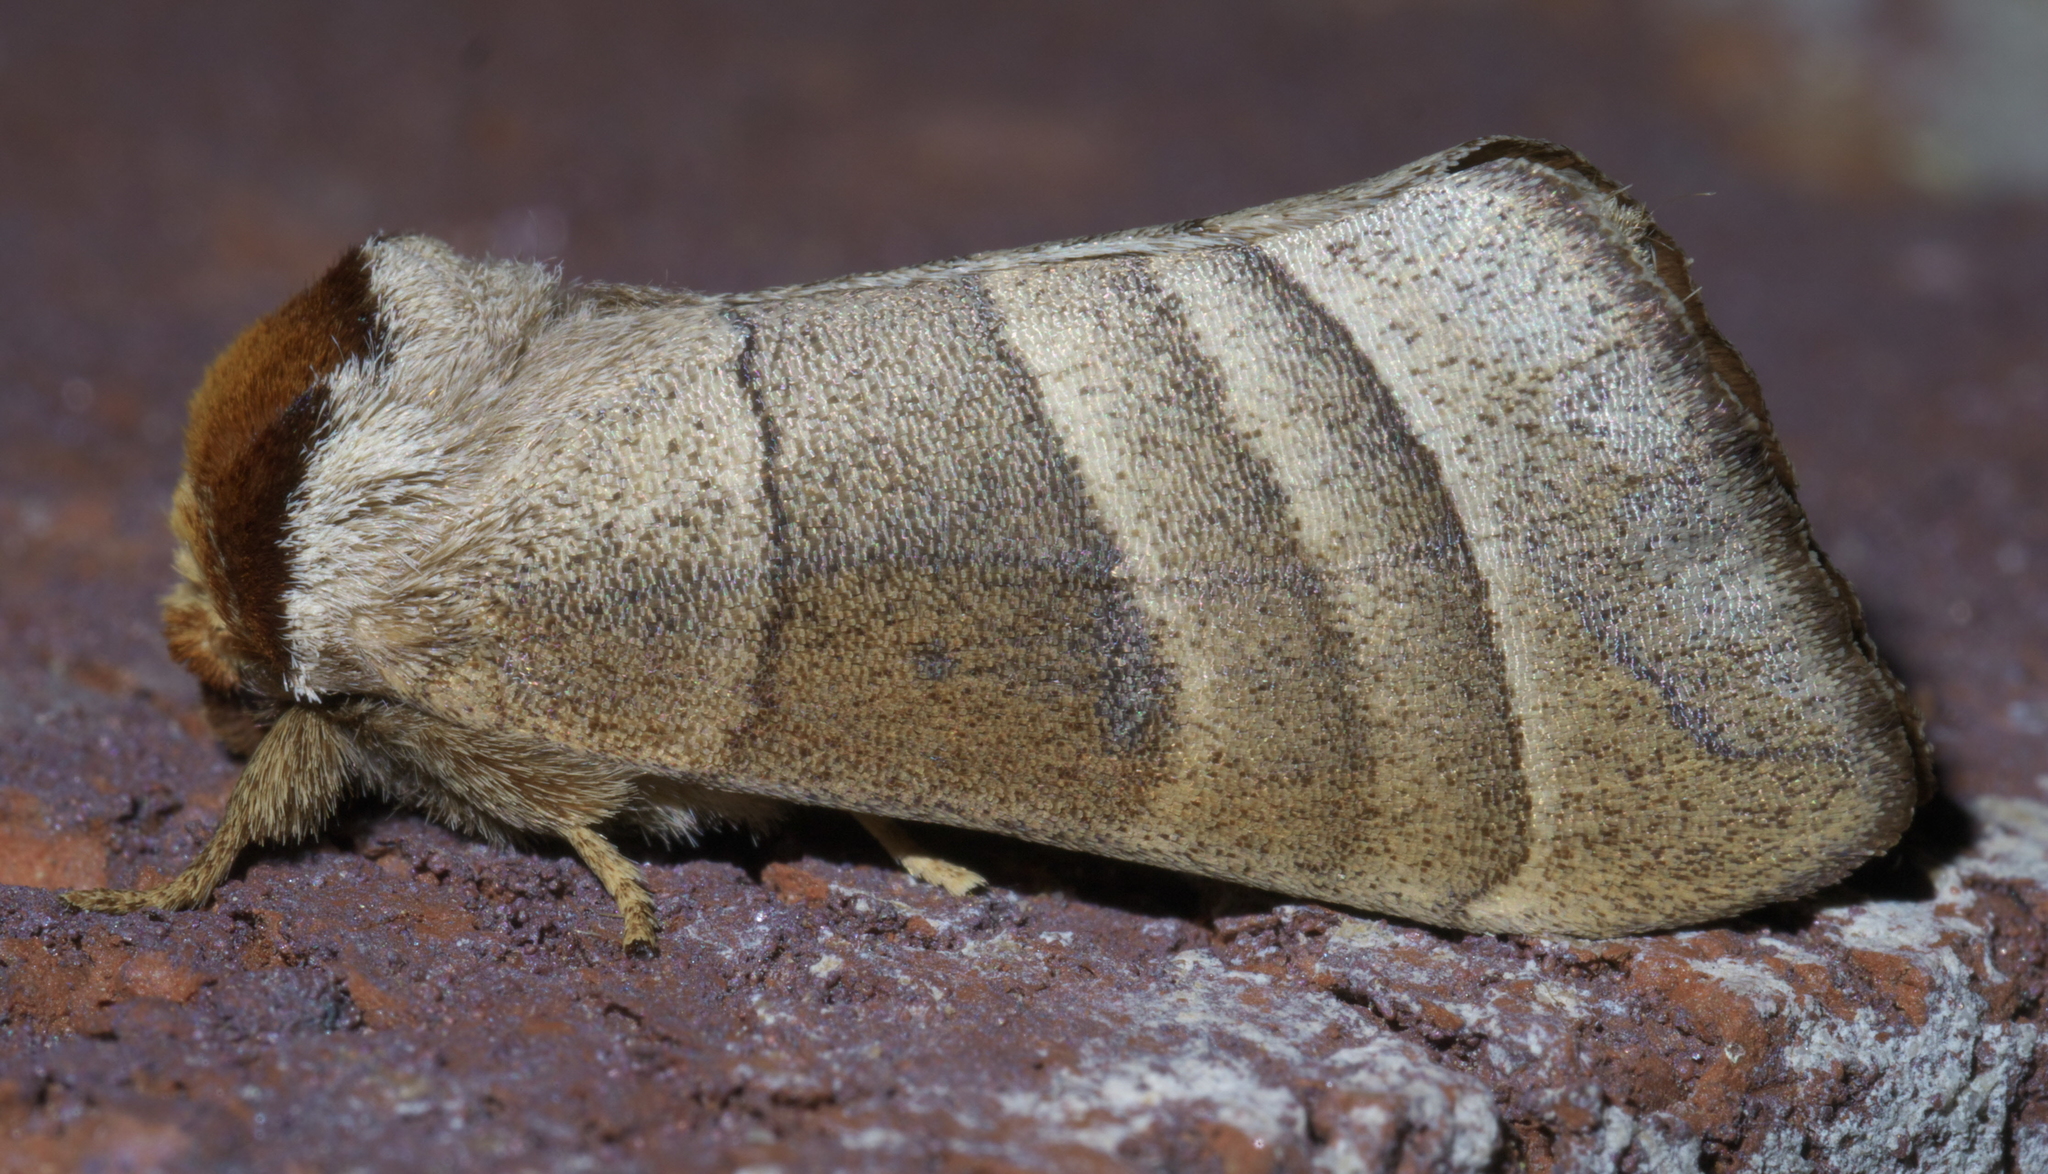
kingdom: Animalia
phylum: Arthropoda
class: Insecta
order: Lepidoptera
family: Notodontidae
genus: Datana
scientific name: Datana integerrima
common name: Walnut caterpillar
